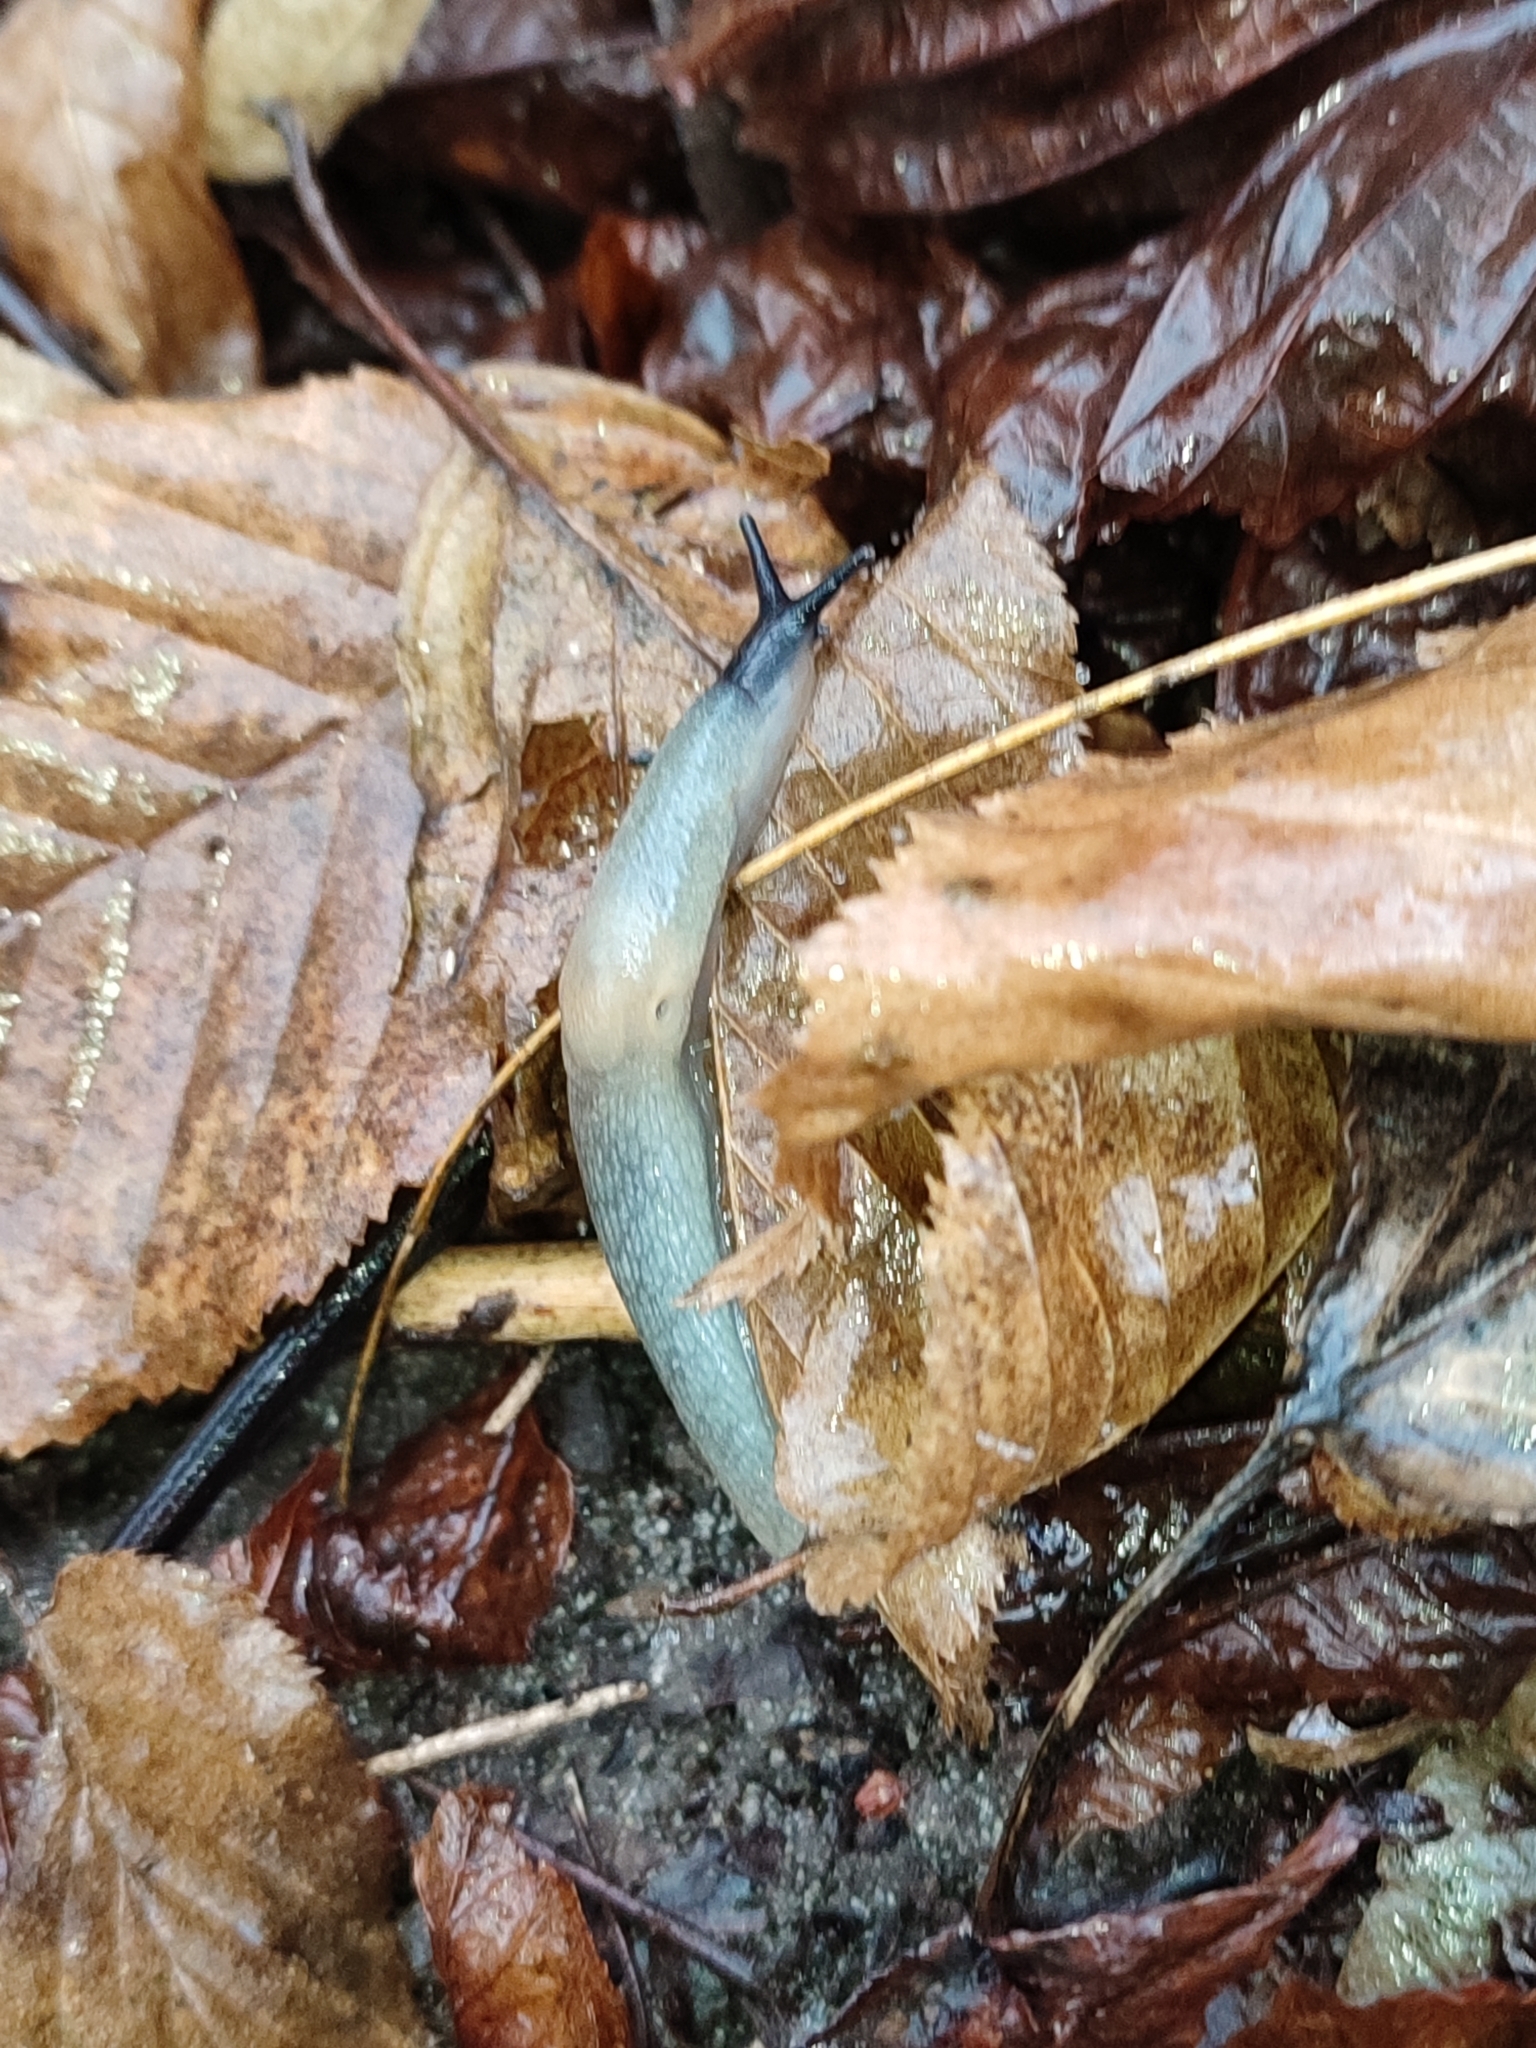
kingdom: Animalia
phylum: Mollusca
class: Gastropoda
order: Stylommatophora
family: Agriolimacidae
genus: Krynickillus
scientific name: Krynickillus melanocephalus
